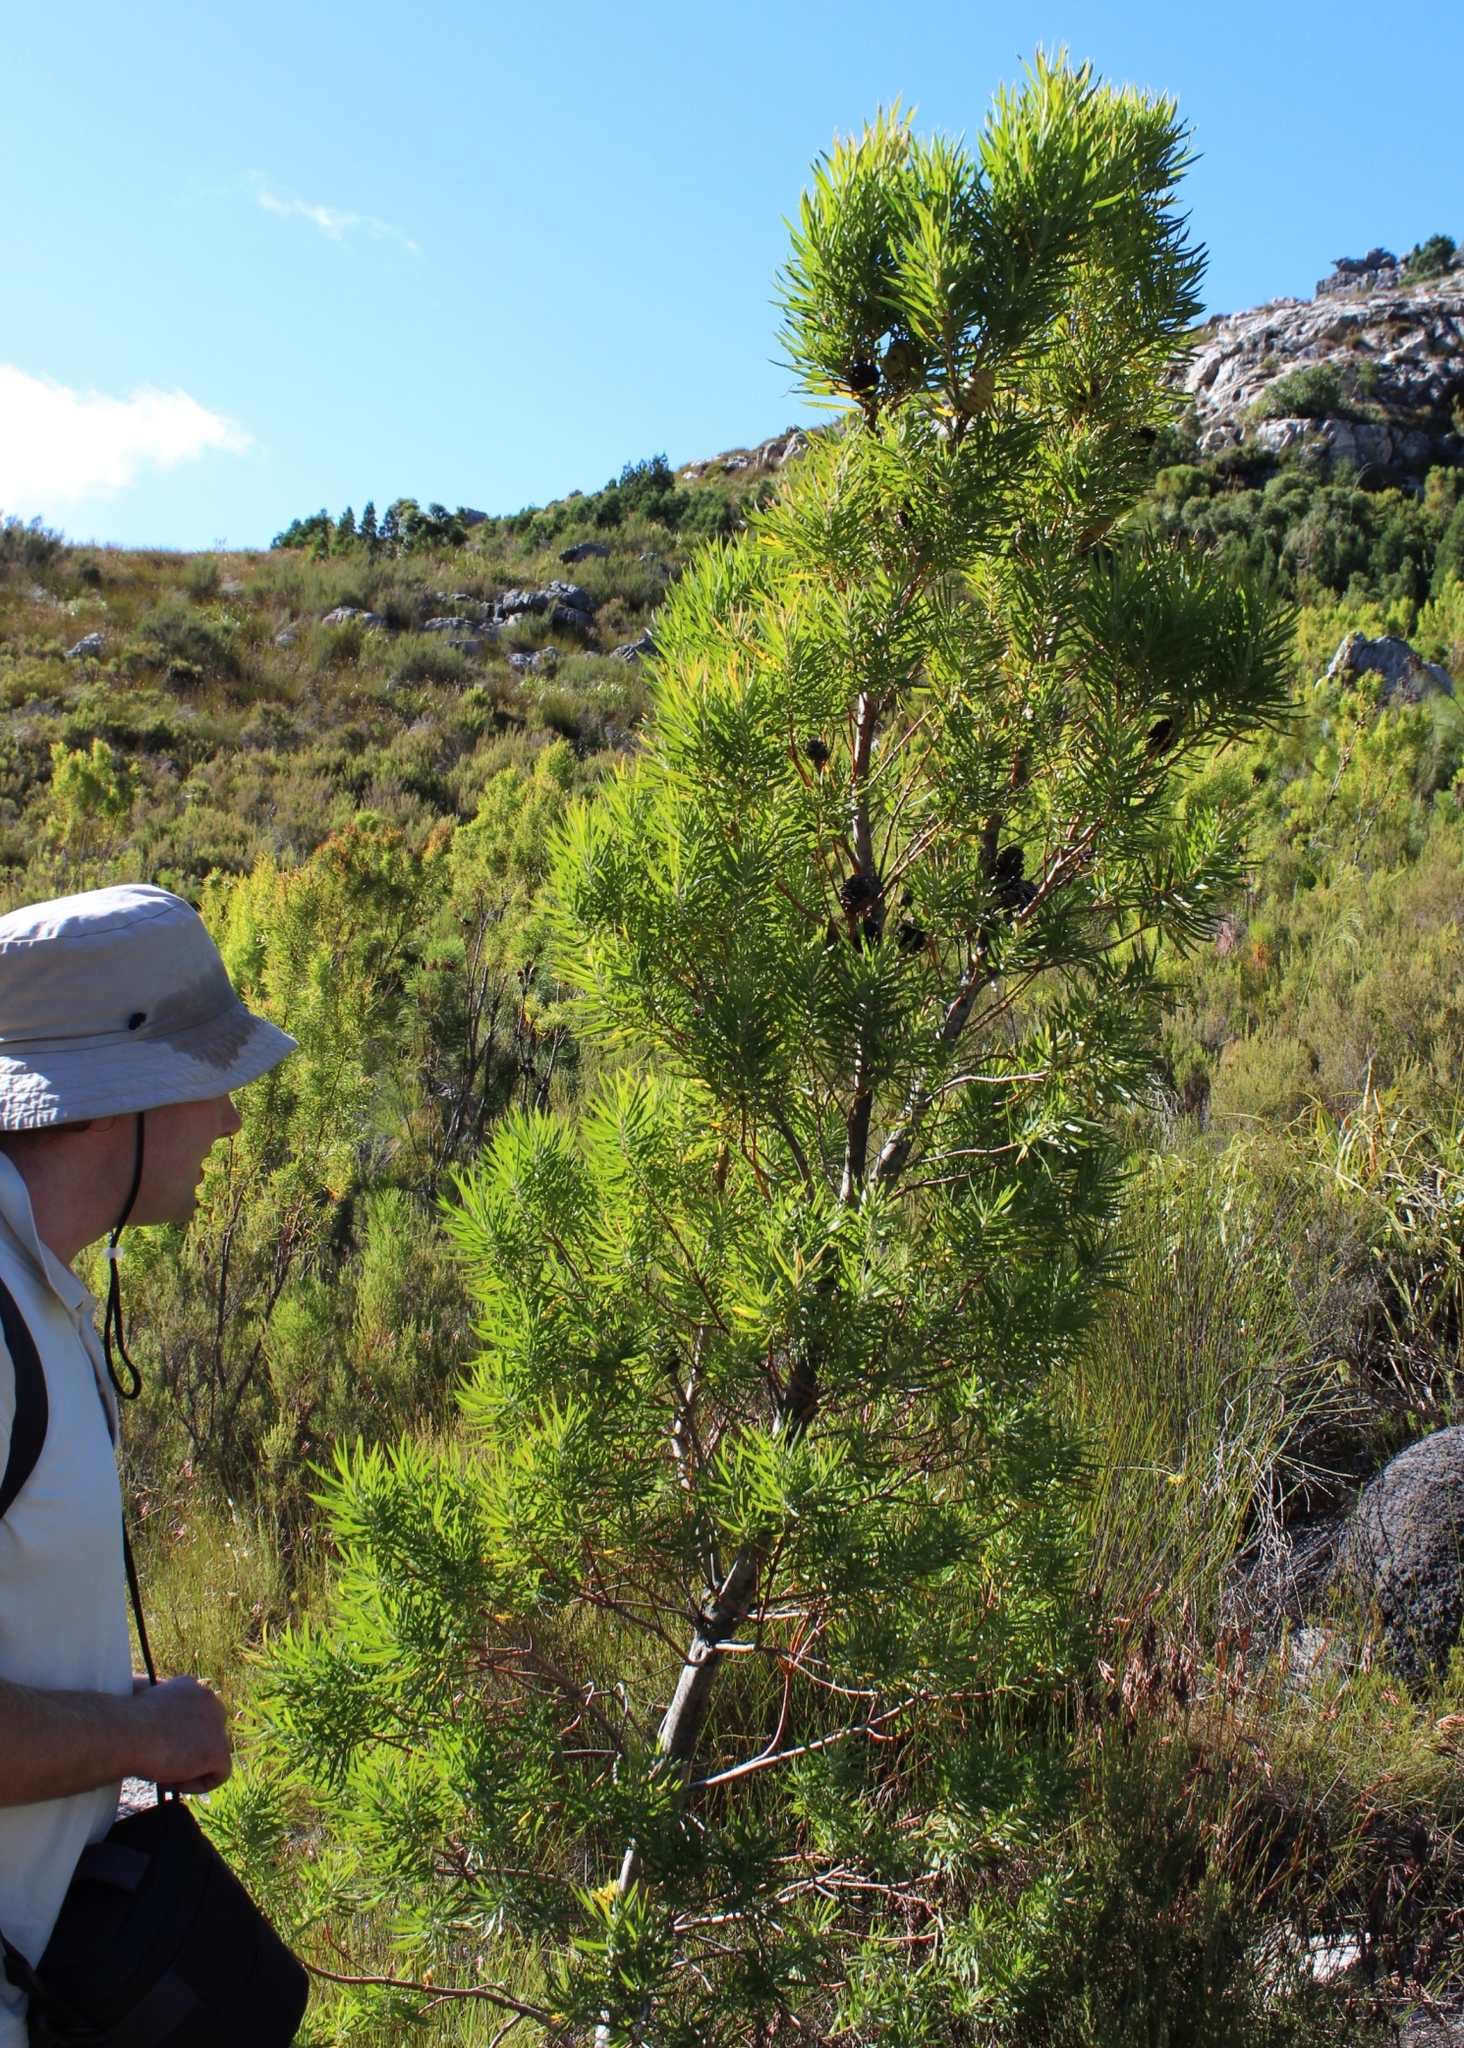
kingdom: Plantae
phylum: Tracheophyta
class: Magnoliopsida
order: Proteales
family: Proteaceae
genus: Leucadendron
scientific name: Leucadendron salicifolium
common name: Common stream conebush
